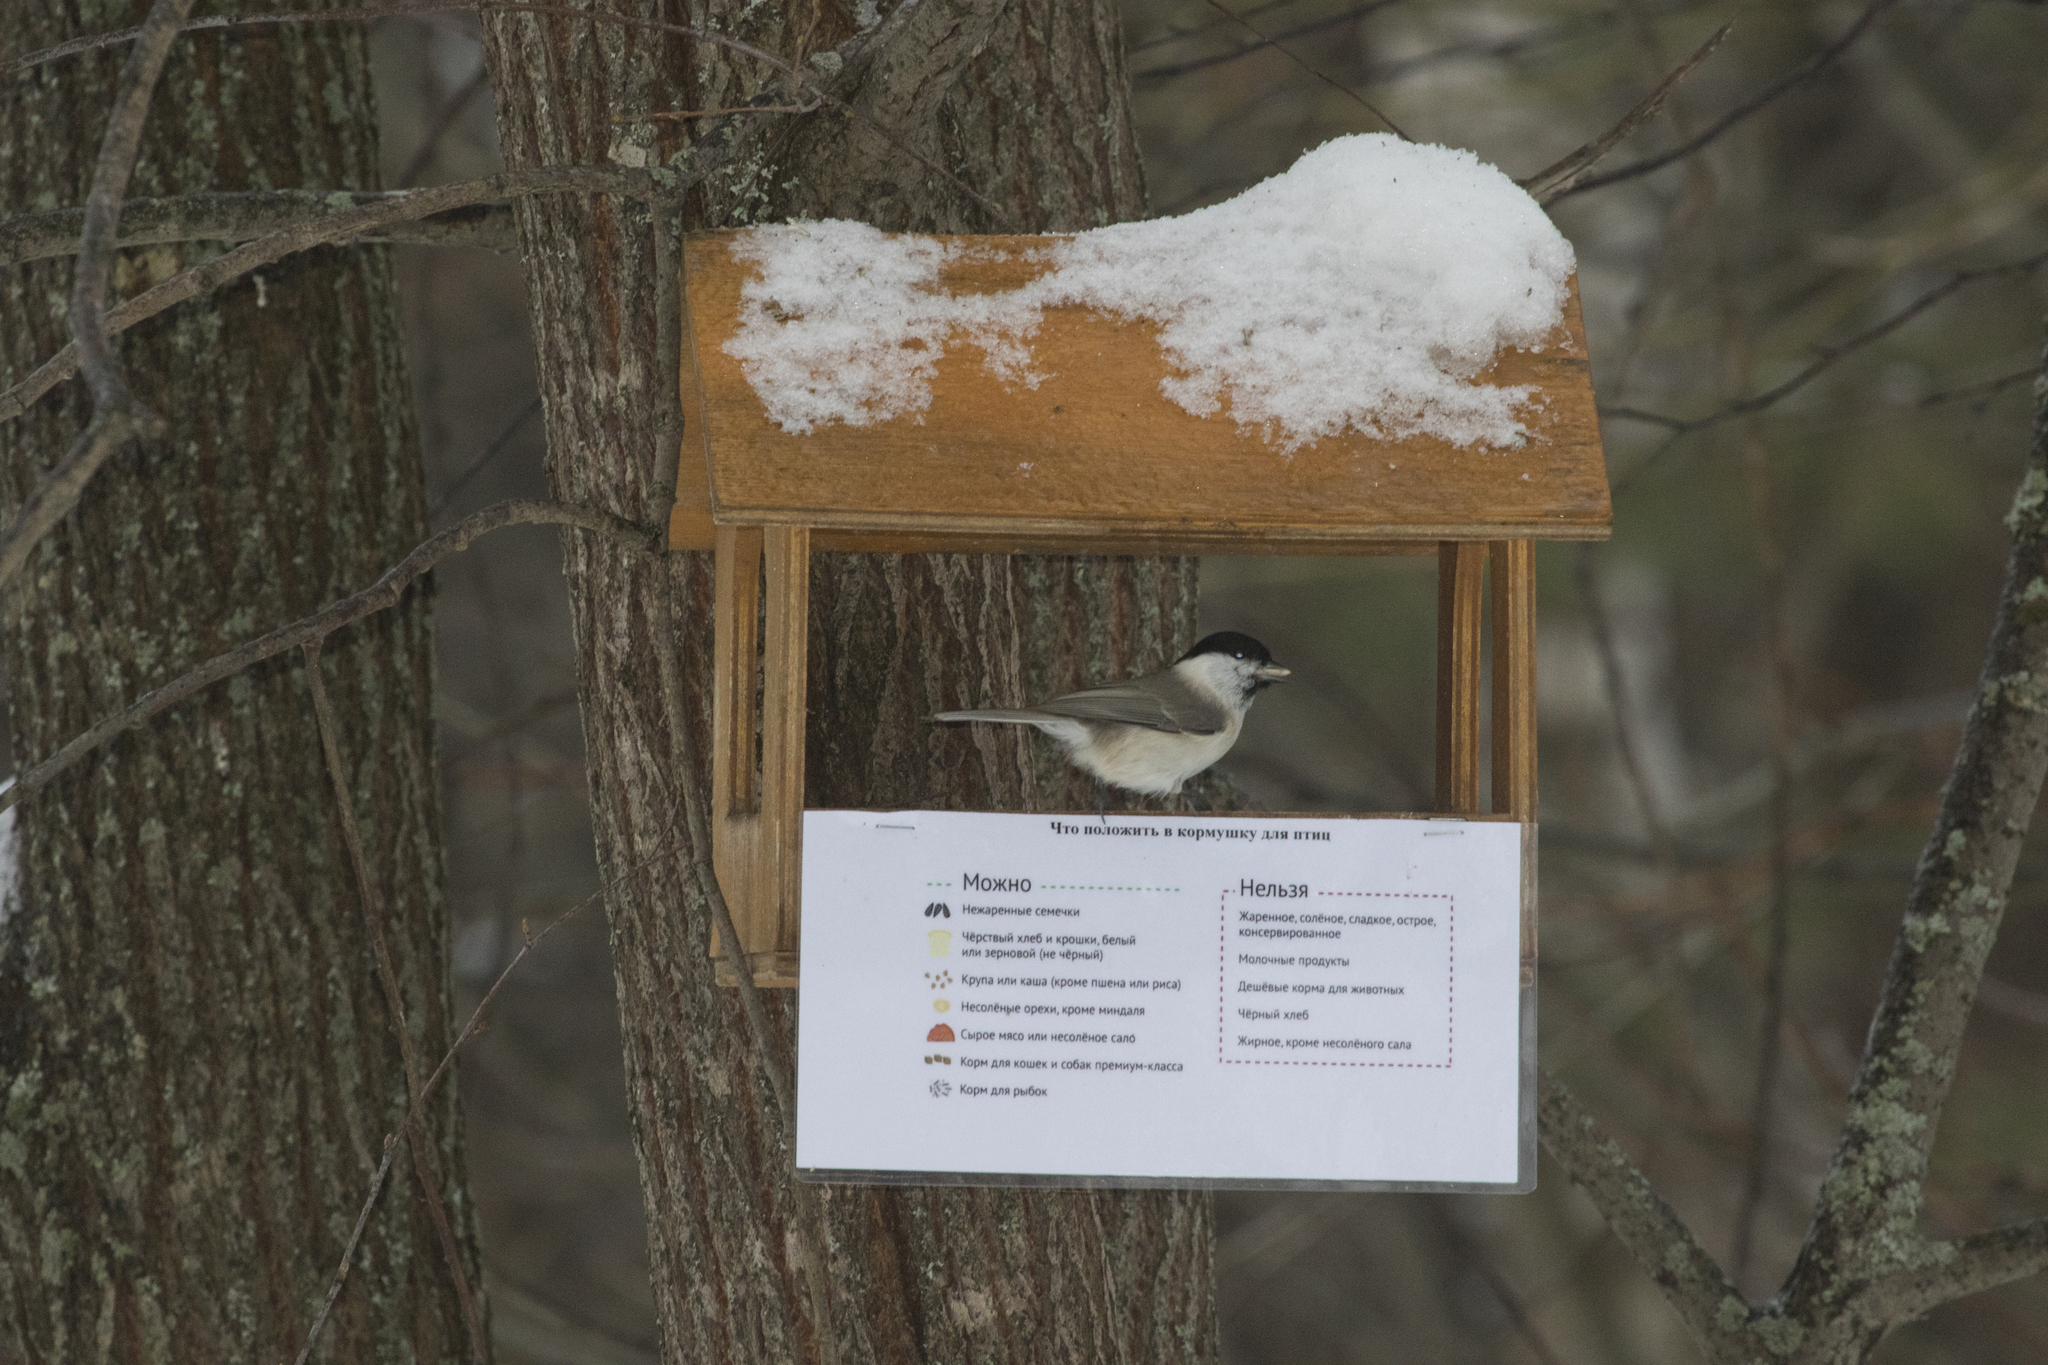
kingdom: Animalia
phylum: Chordata
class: Aves
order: Passeriformes
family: Paridae
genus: Poecile
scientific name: Poecile palustris
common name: Marsh tit
